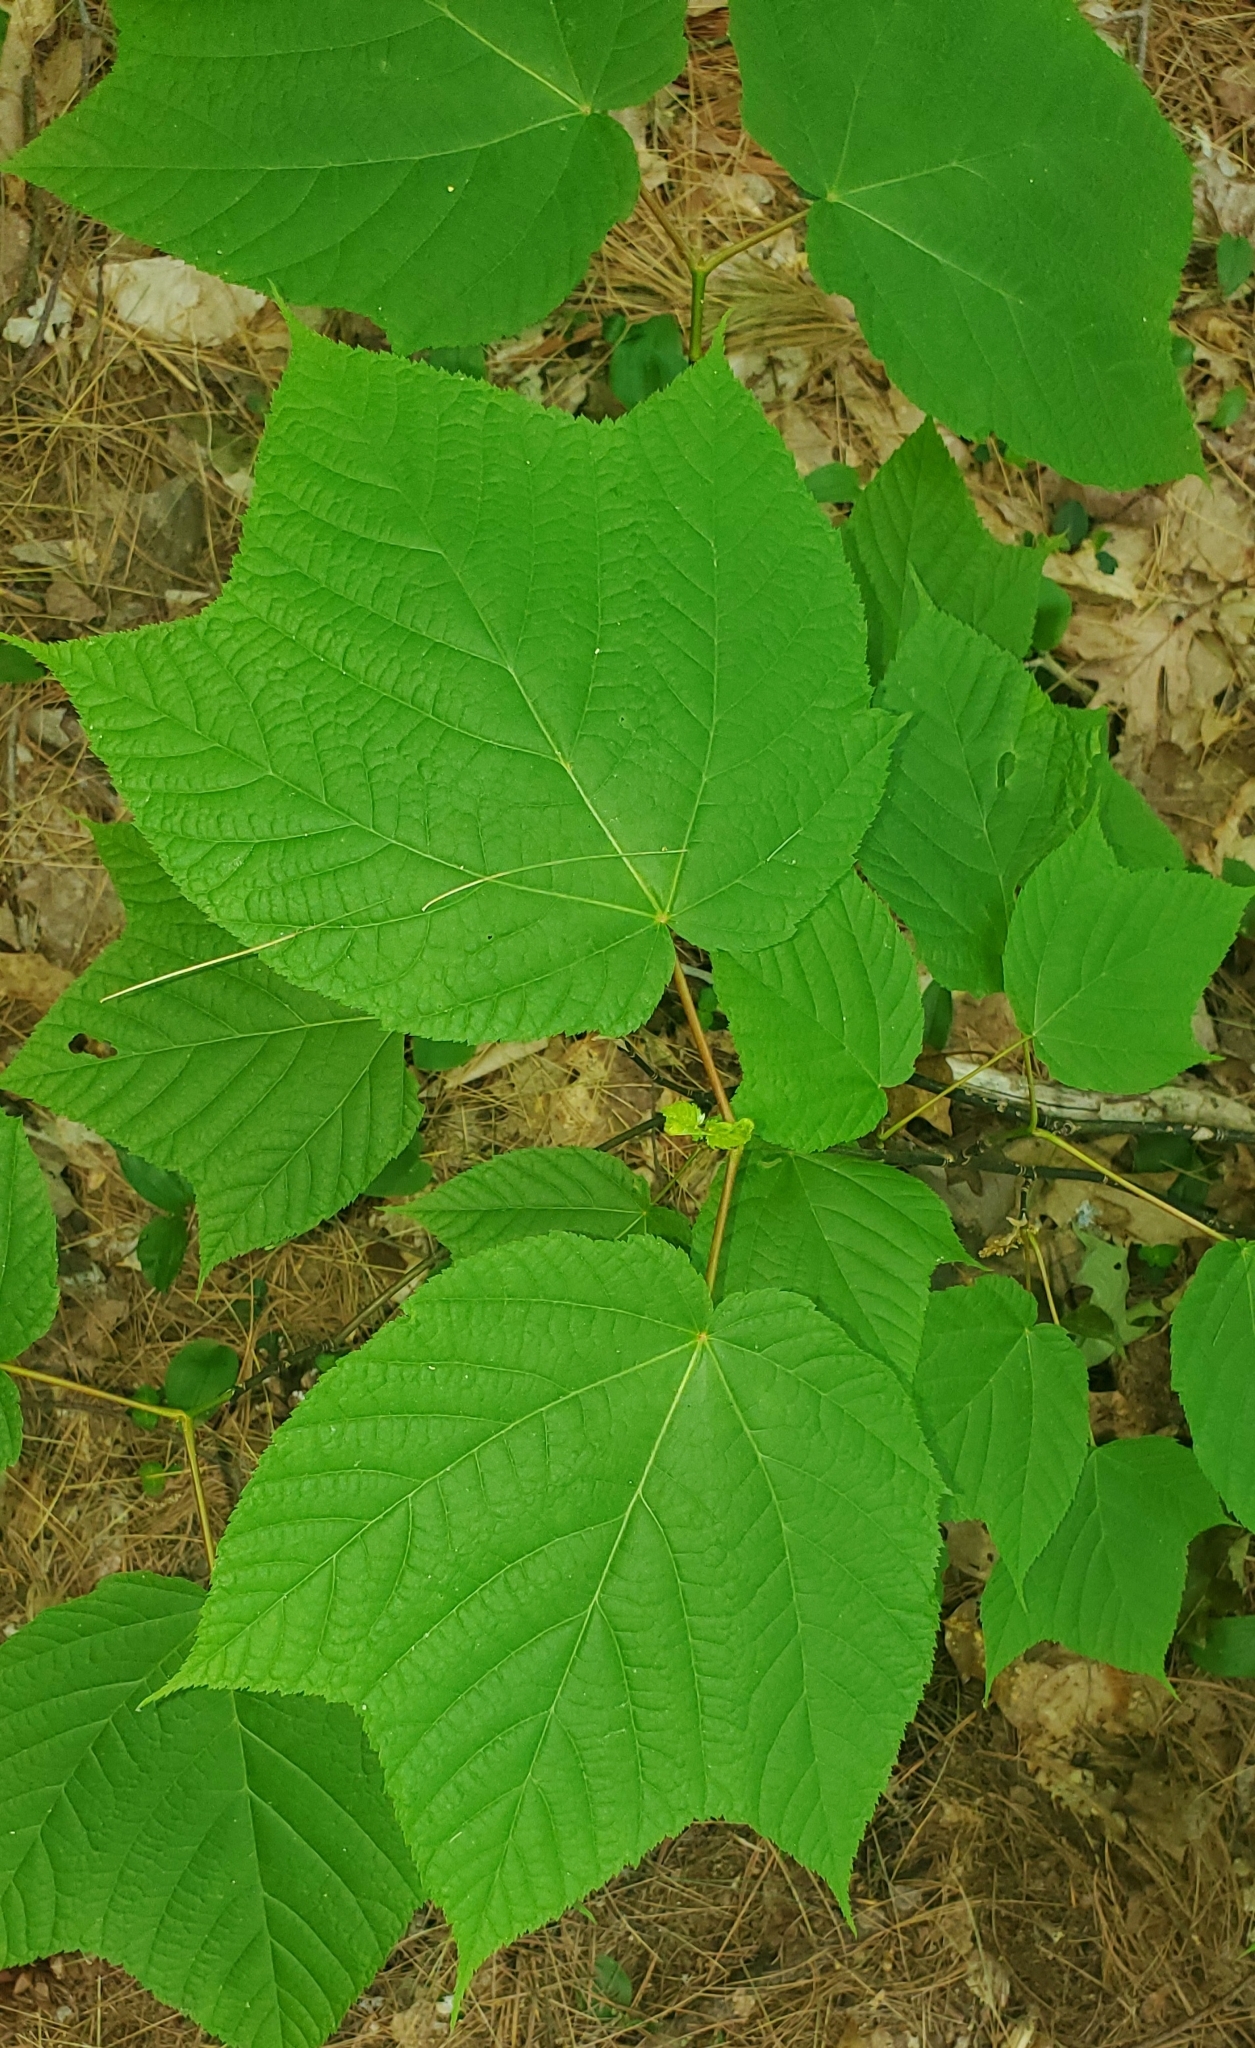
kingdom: Plantae
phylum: Tracheophyta
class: Magnoliopsida
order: Sapindales
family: Sapindaceae
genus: Acer
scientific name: Acer pensylvanicum
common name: Moosewood
